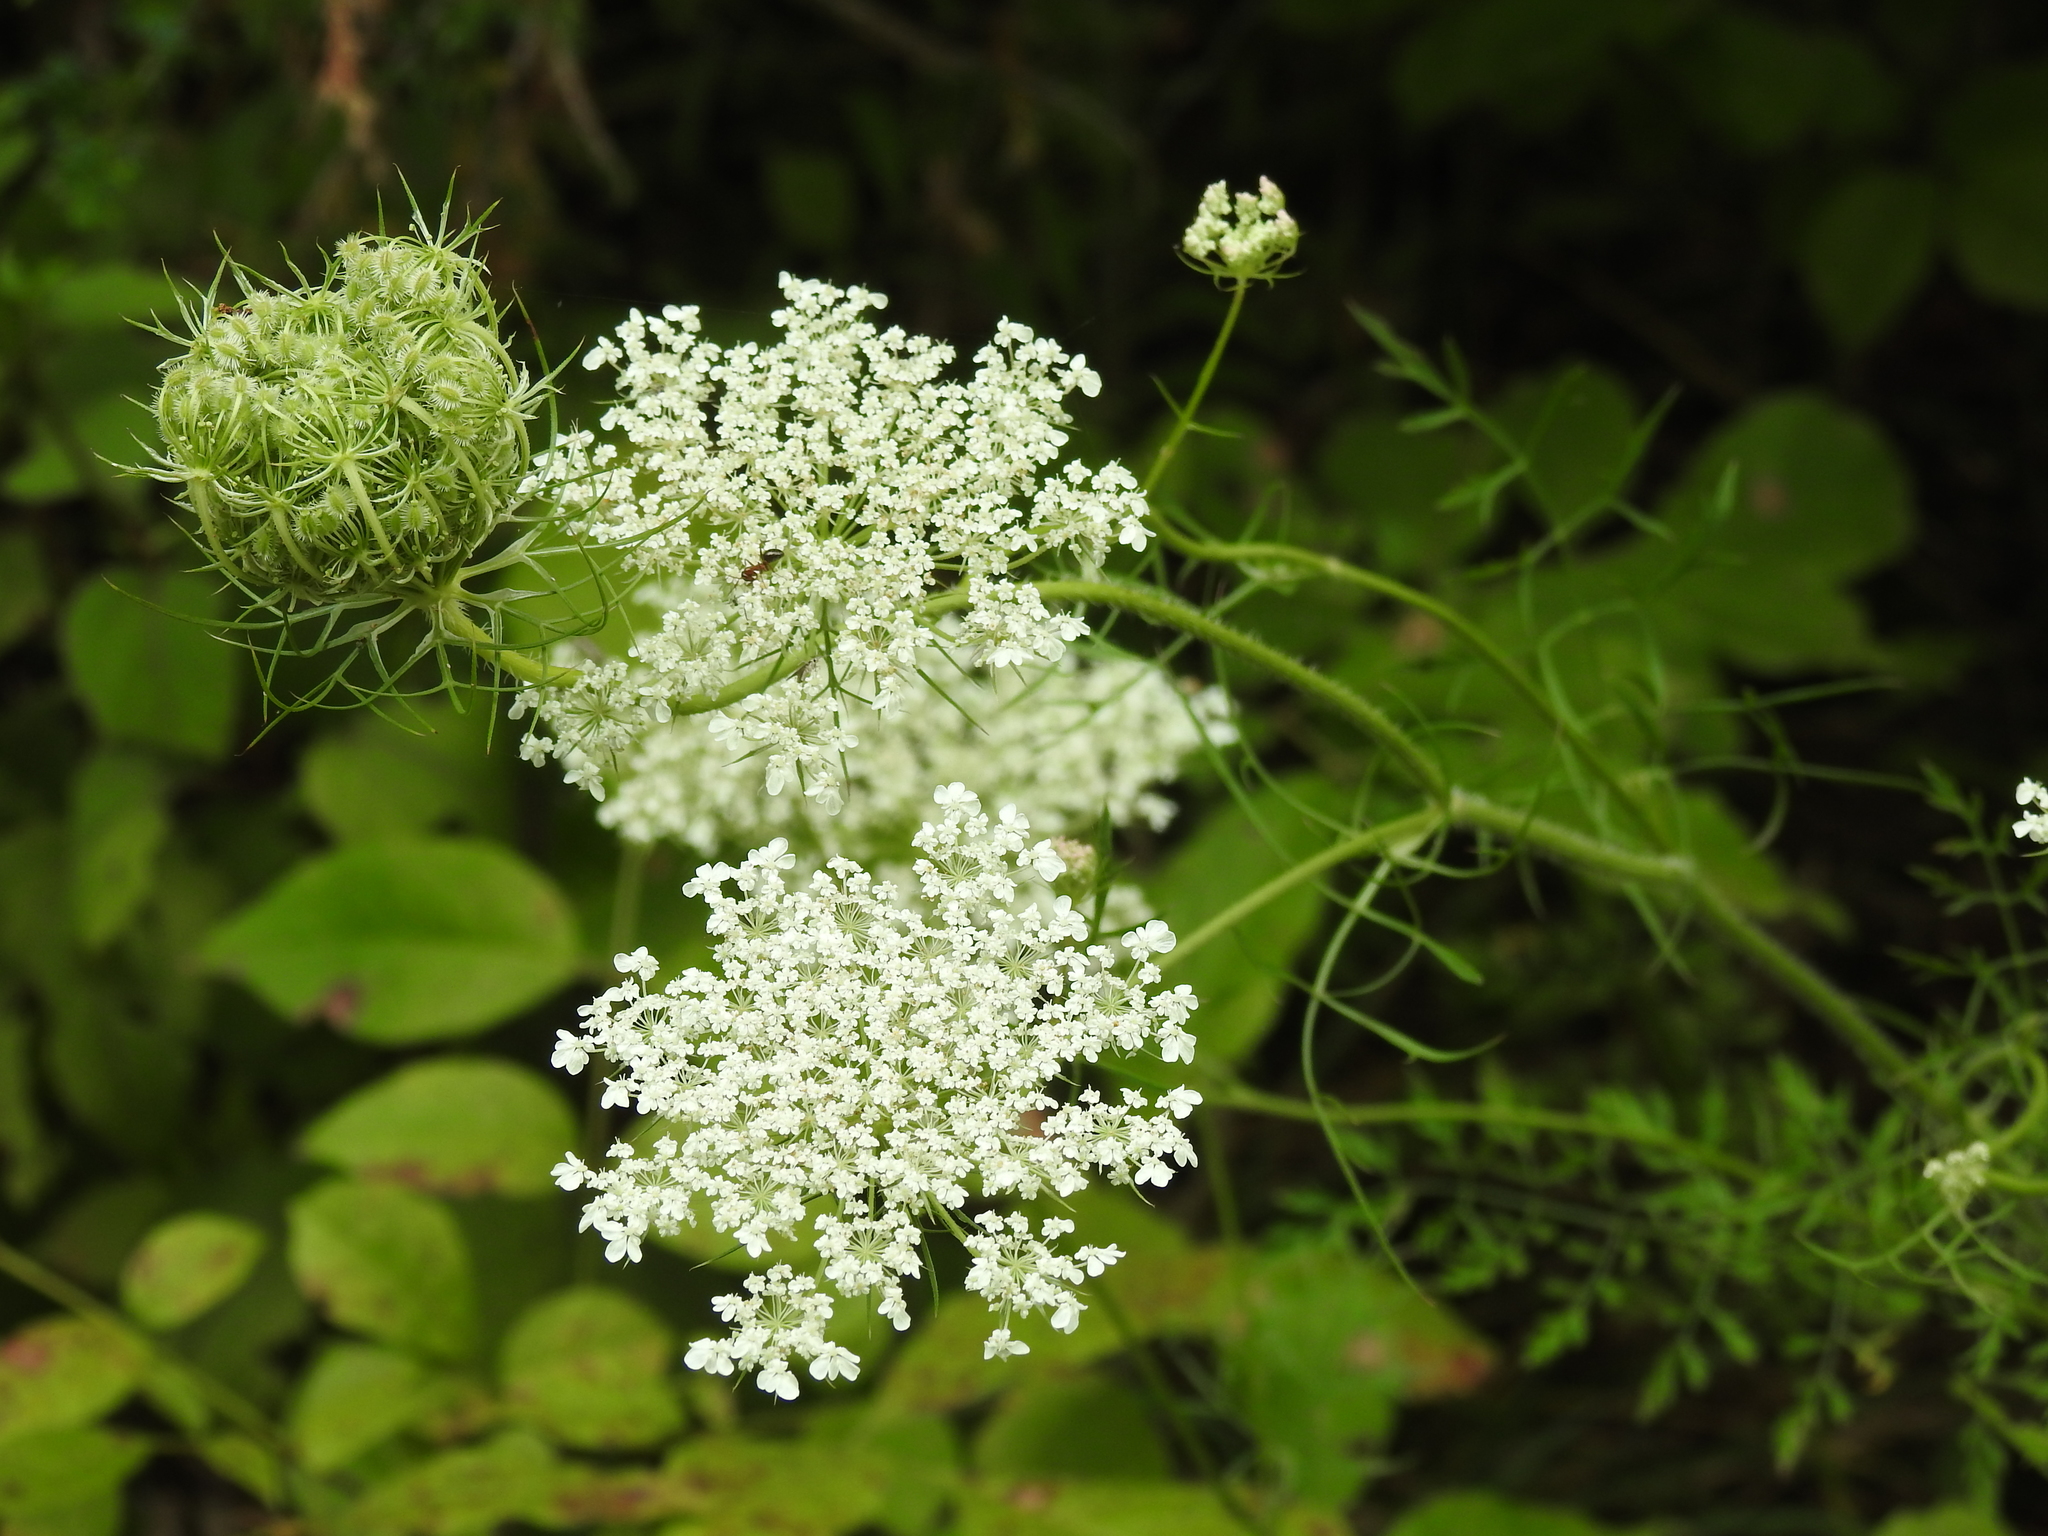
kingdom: Plantae
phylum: Tracheophyta
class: Magnoliopsida
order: Apiales
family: Apiaceae
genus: Daucus
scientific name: Daucus carota
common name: Wild carrot
